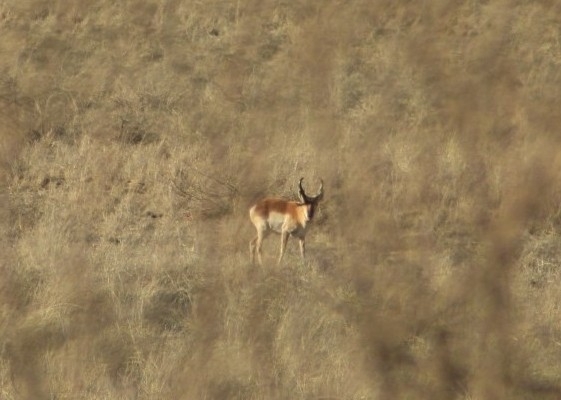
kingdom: Animalia
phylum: Chordata
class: Mammalia
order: Artiodactyla
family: Antilocapridae
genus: Antilocapra
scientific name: Antilocapra americana
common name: Pronghorn
